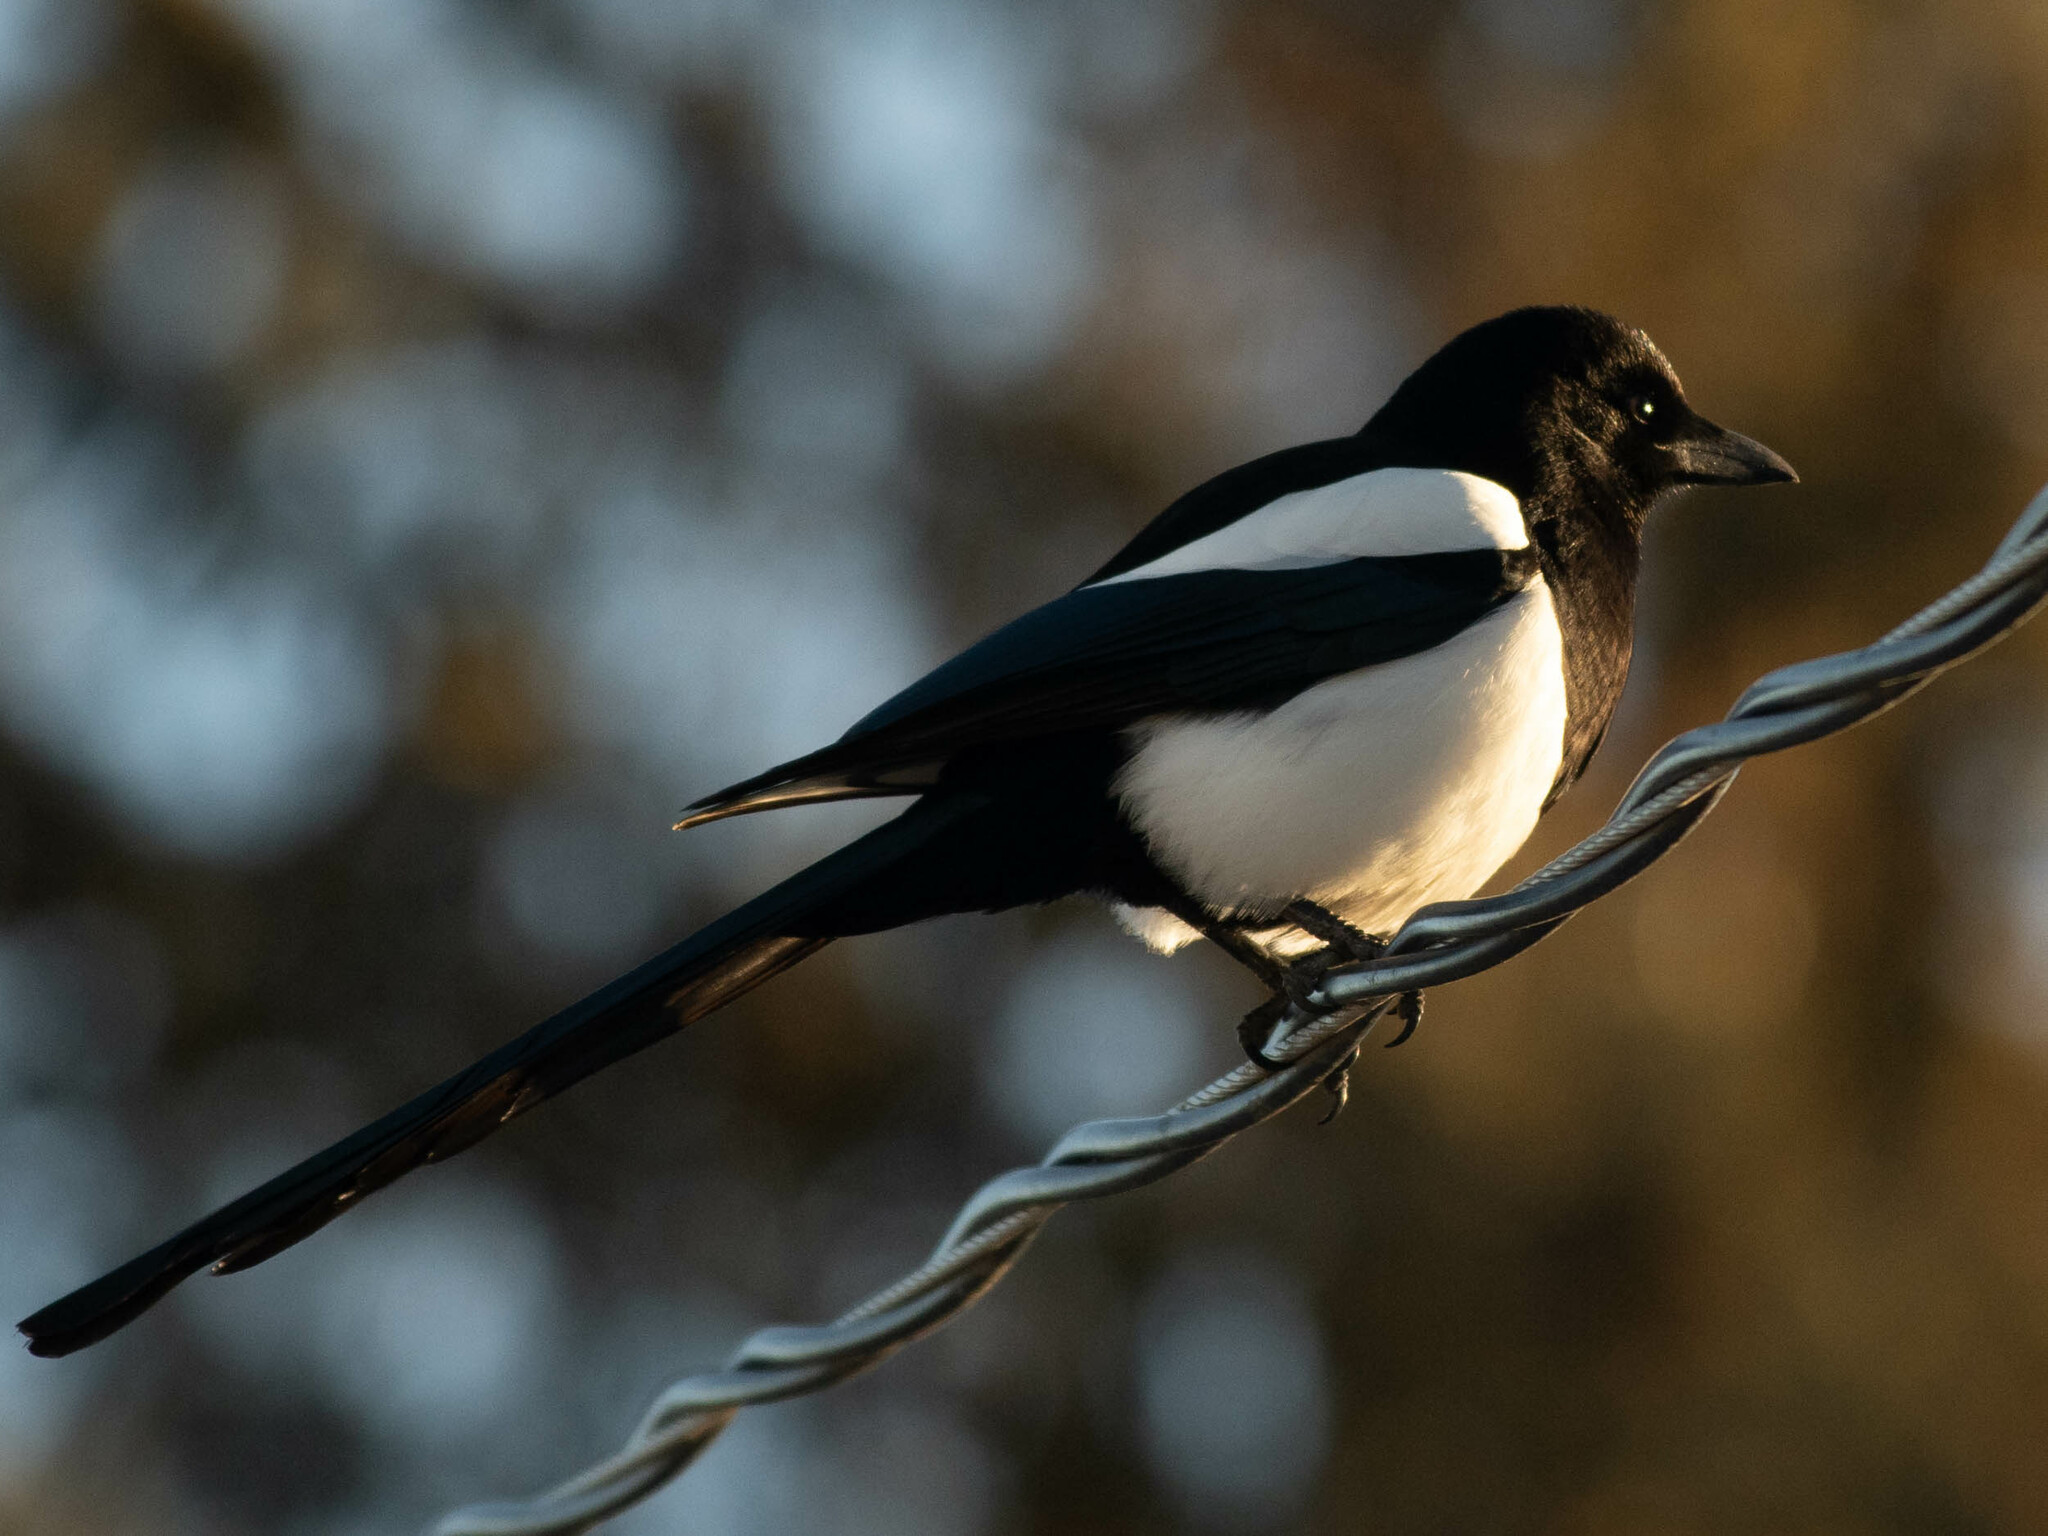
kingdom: Animalia
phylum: Chordata
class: Aves
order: Passeriformes
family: Corvidae
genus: Pica
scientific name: Pica hudsonia
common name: Black-billed magpie
